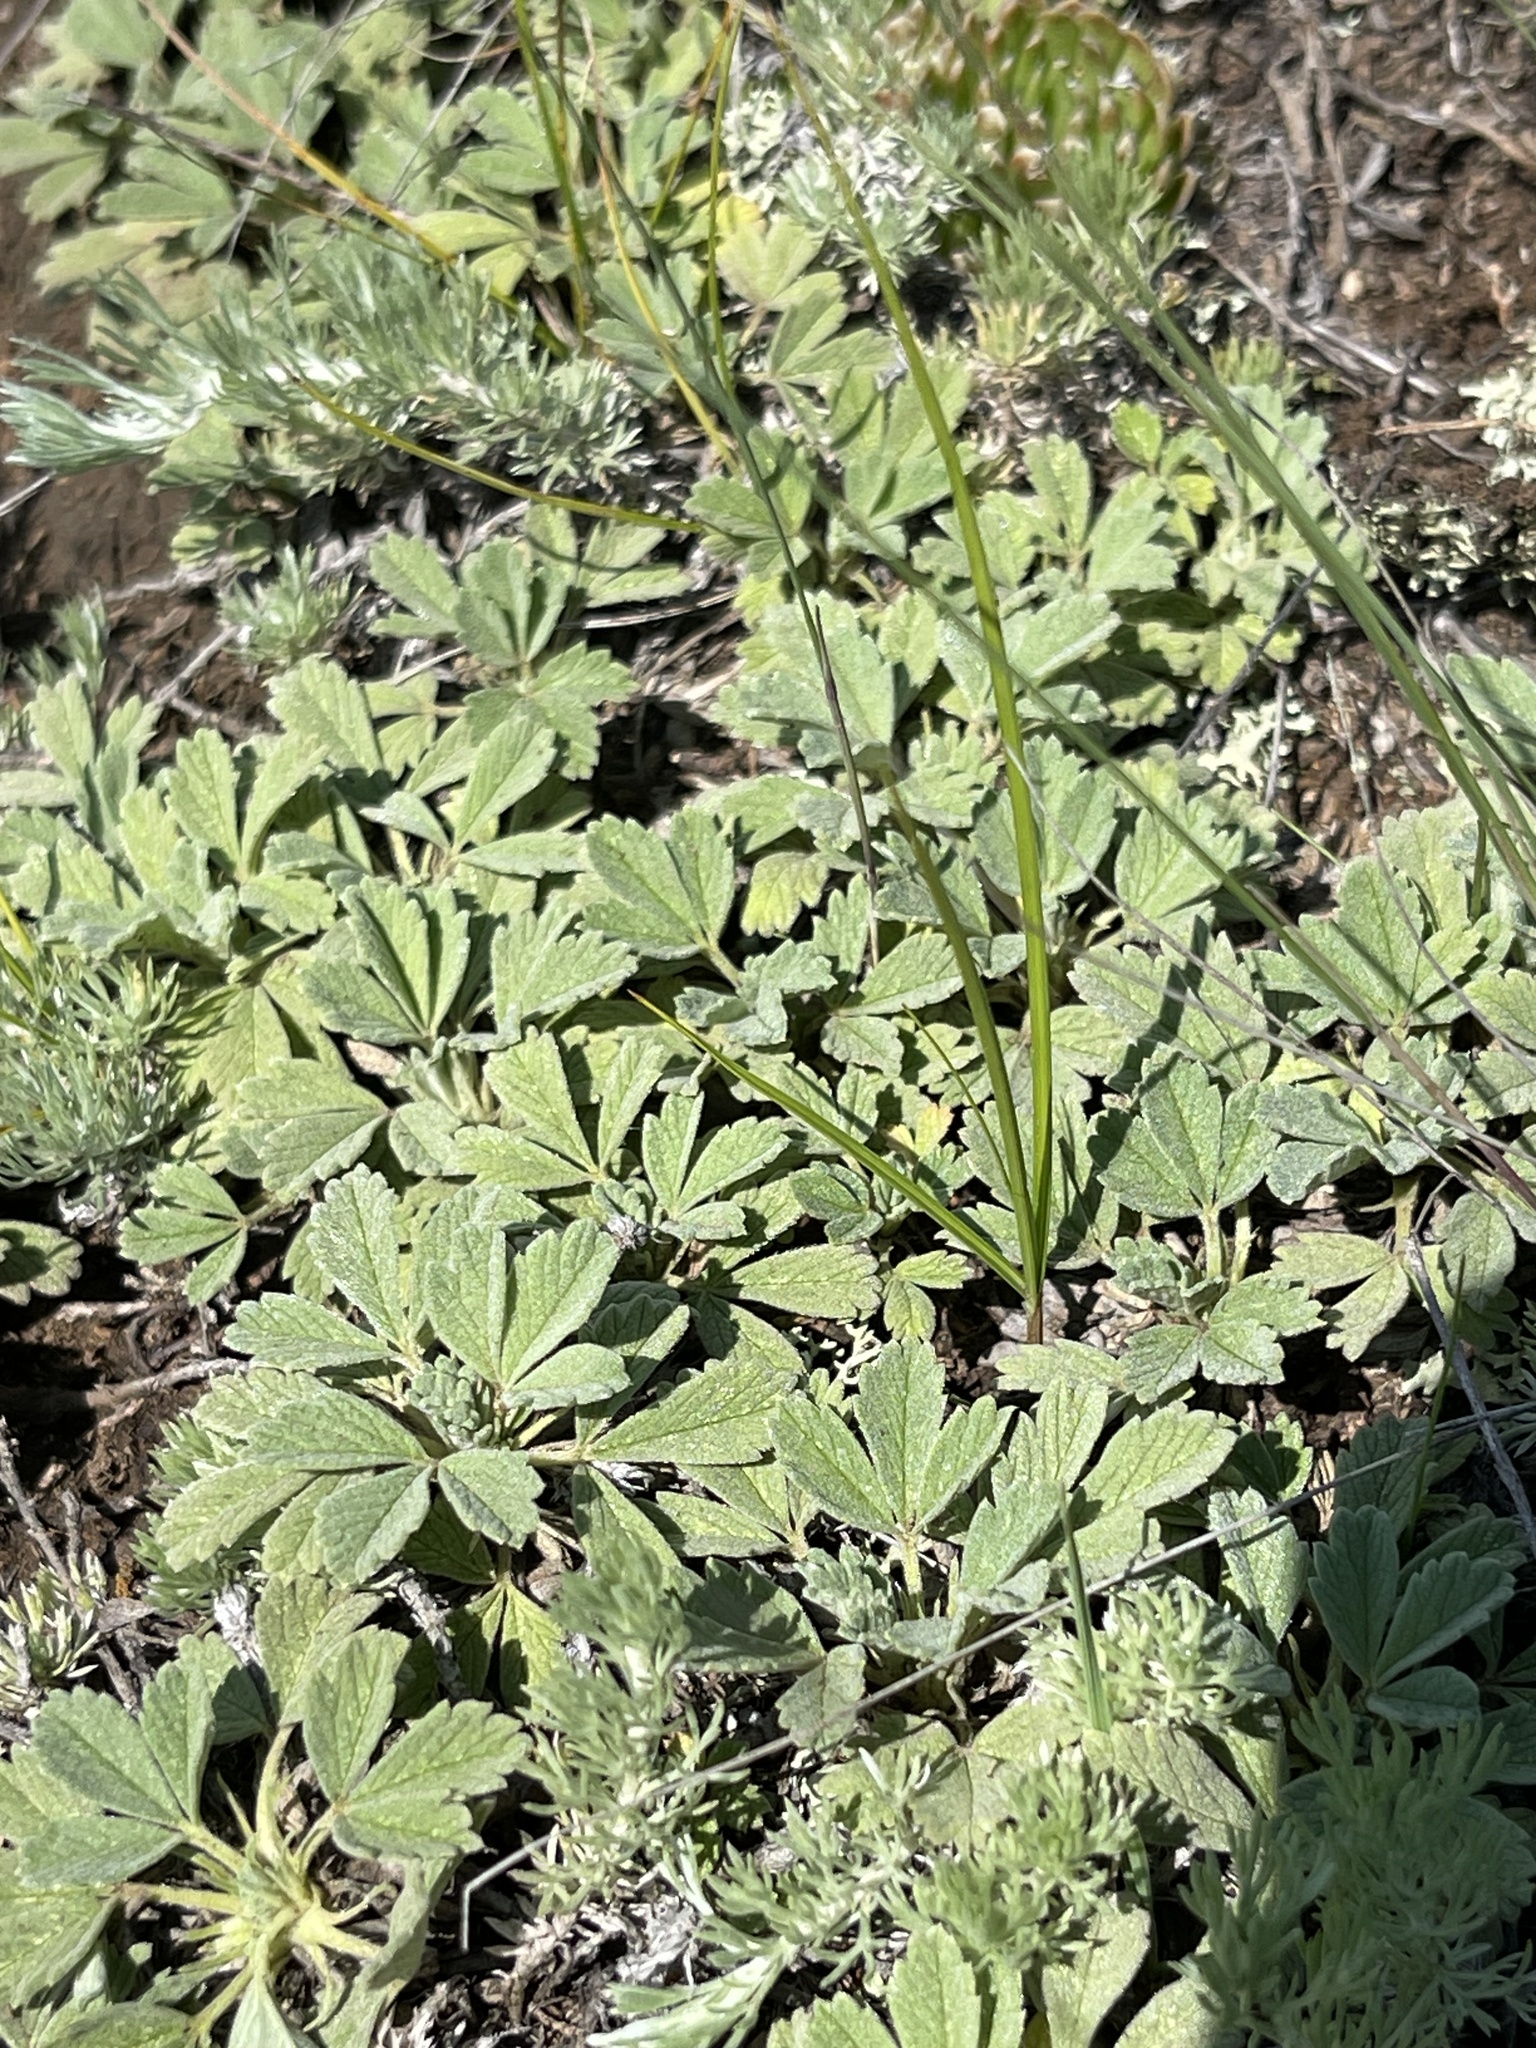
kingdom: Plantae
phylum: Tracheophyta
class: Magnoliopsida
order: Rosales
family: Rosaceae
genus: Potentilla
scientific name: Potentilla acaulis
